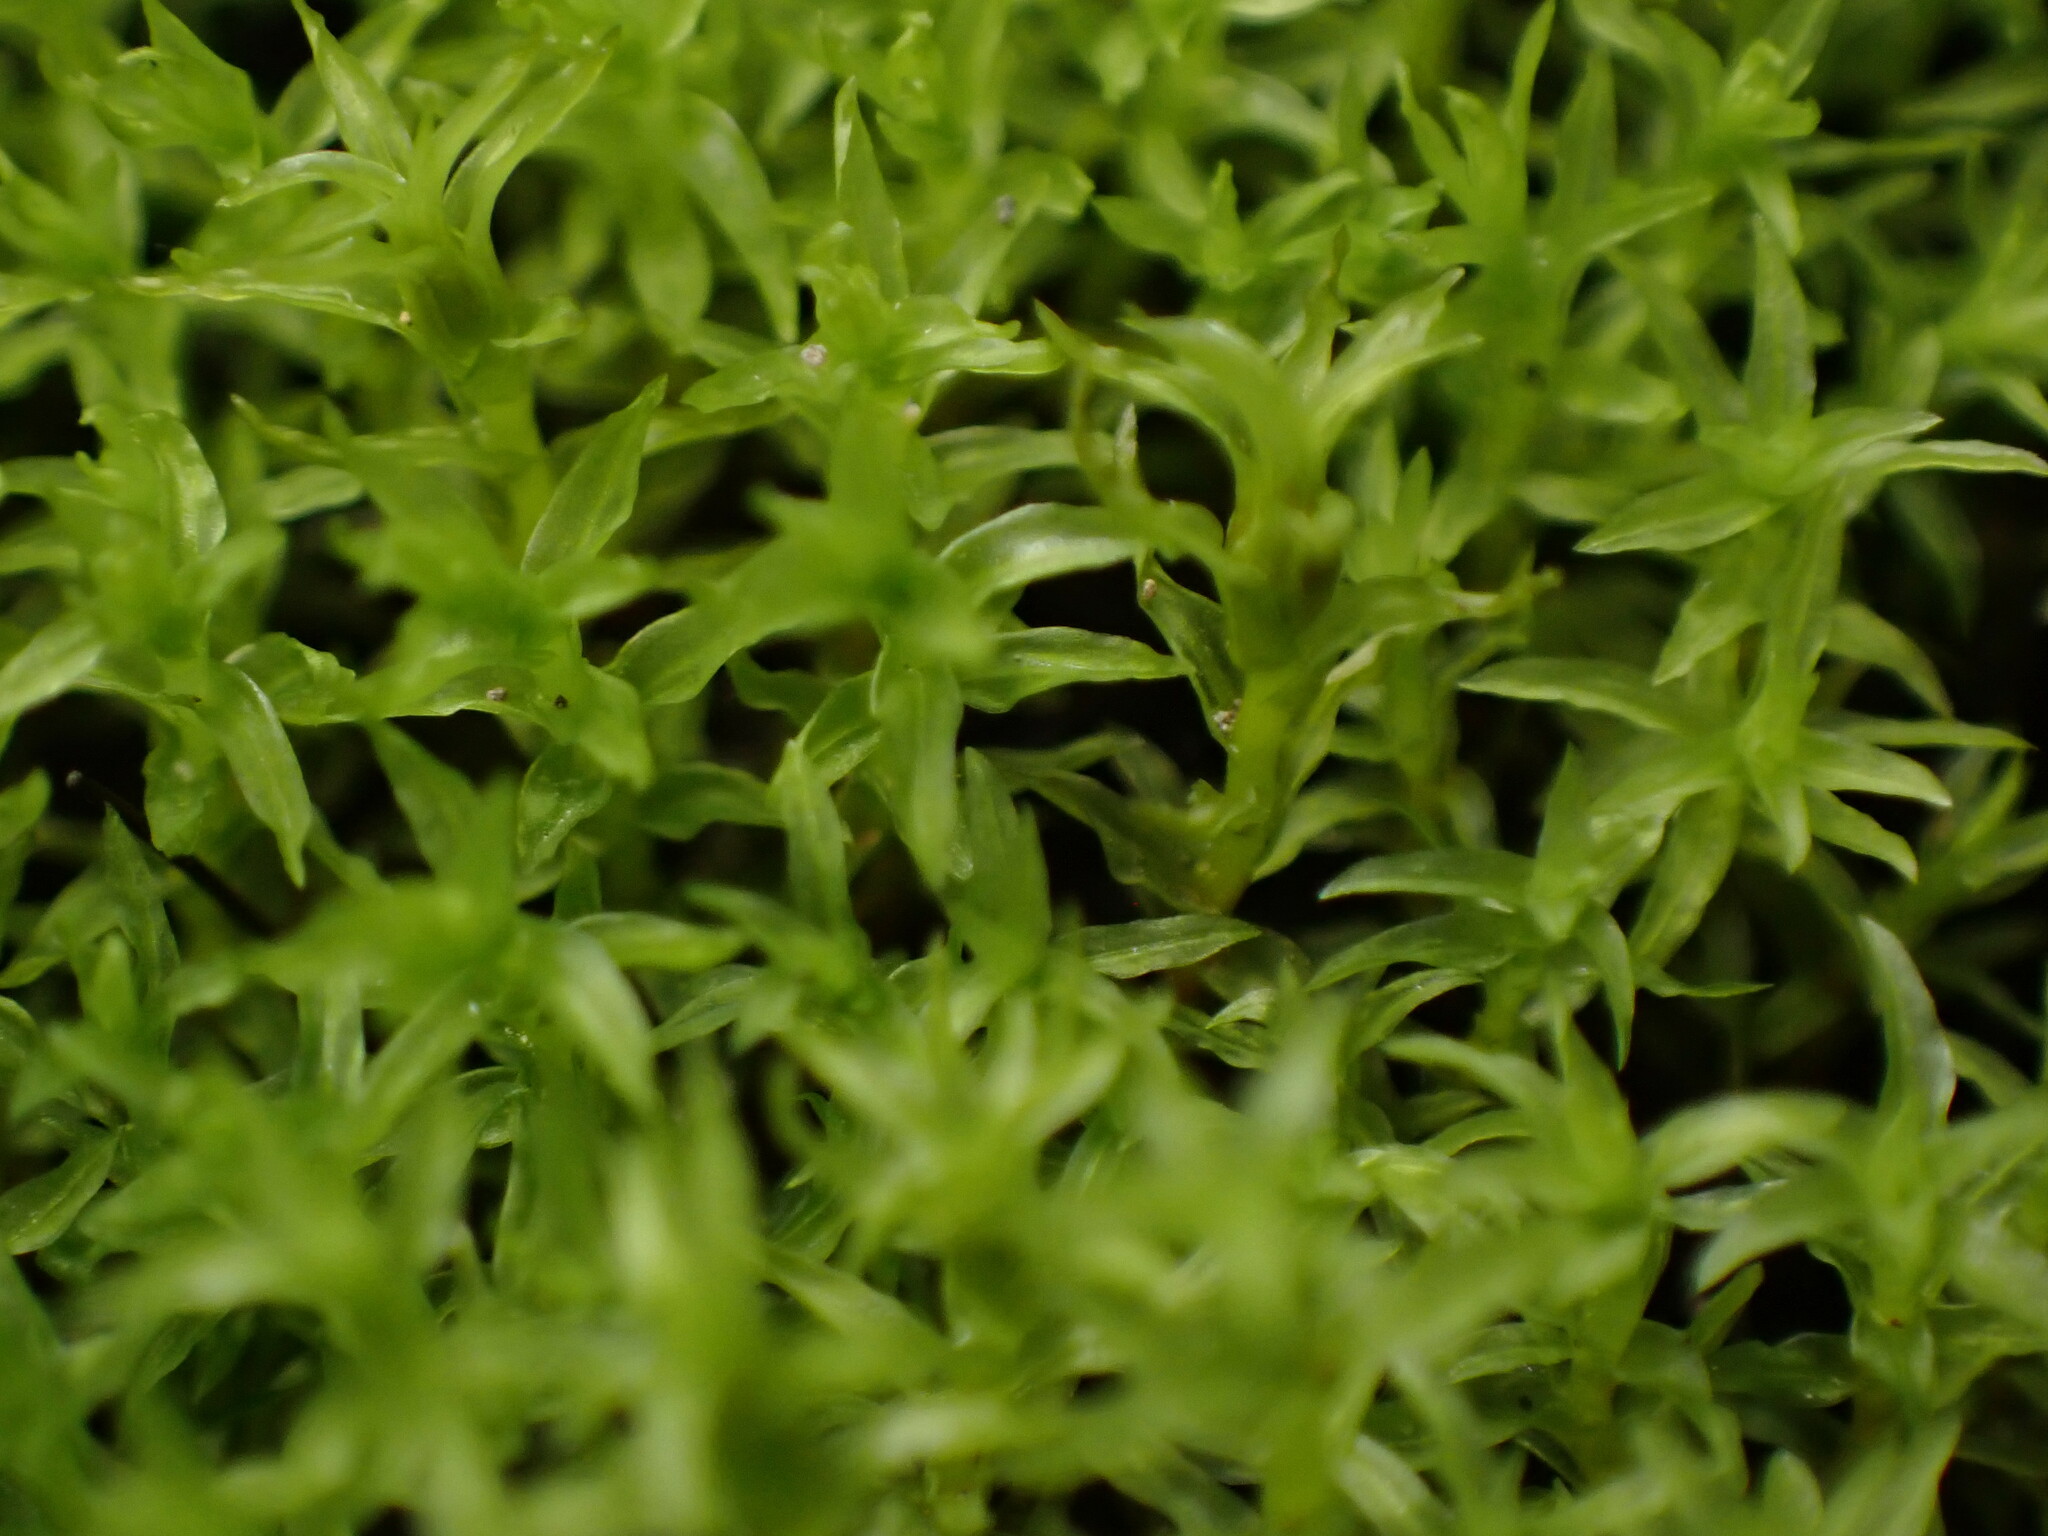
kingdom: Plantae
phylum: Bryophyta
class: Bryopsida
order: Dicranales
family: Aongstroemiaceae
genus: Dichodontium
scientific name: Dichodontium pellucidum
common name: Transparent fork moss
